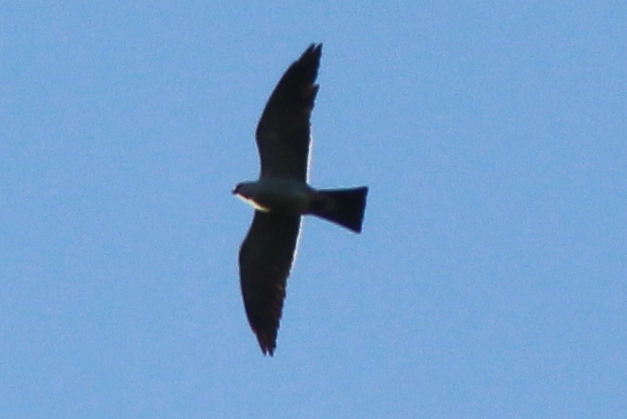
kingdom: Animalia
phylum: Chordata
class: Aves
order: Accipitriformes
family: Accipitridae
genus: Ictinia
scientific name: Ictinia mississippiensis
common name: Mississippi kite
